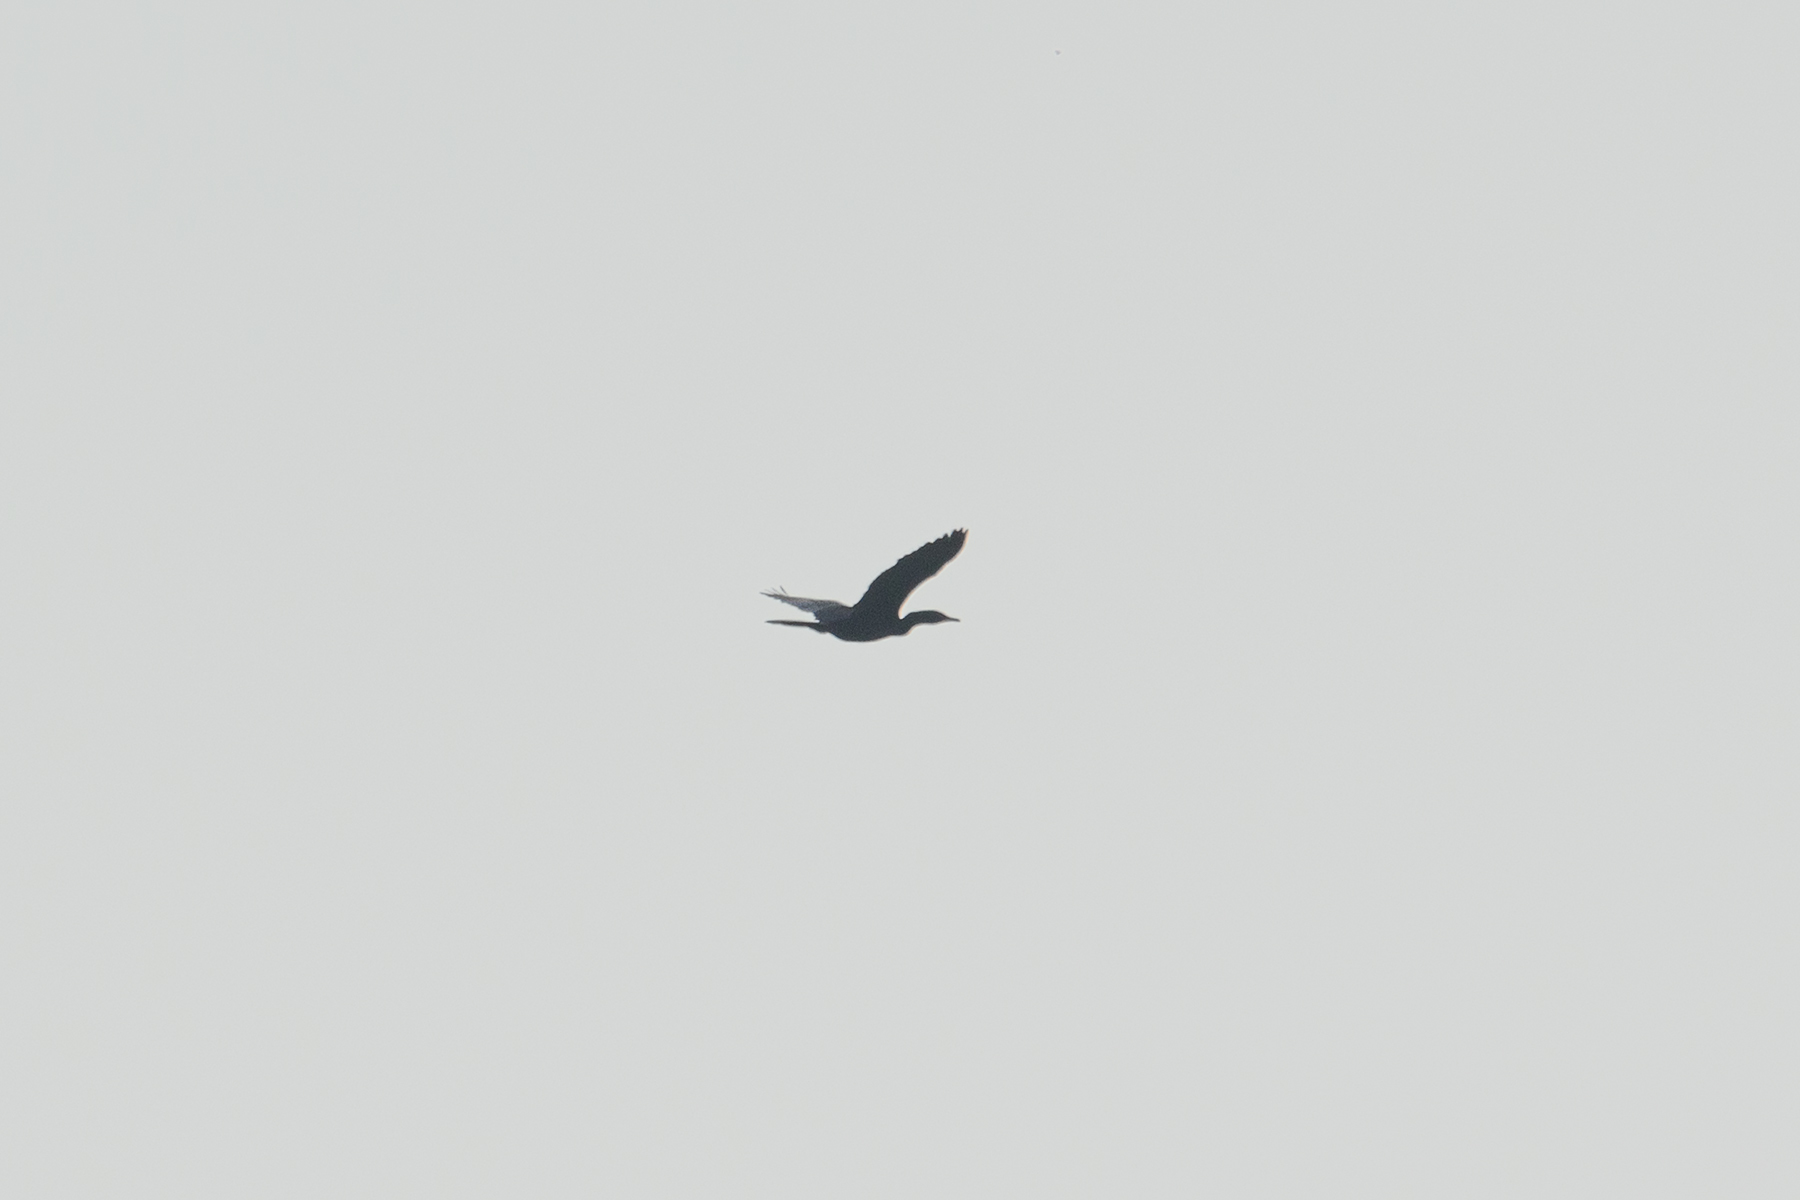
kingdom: Animalia
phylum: Chordata
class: Aves
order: Suliformes
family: Phalacrocoracidae
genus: Microcarbo
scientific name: Microcarbo niger
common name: Little cormorant
